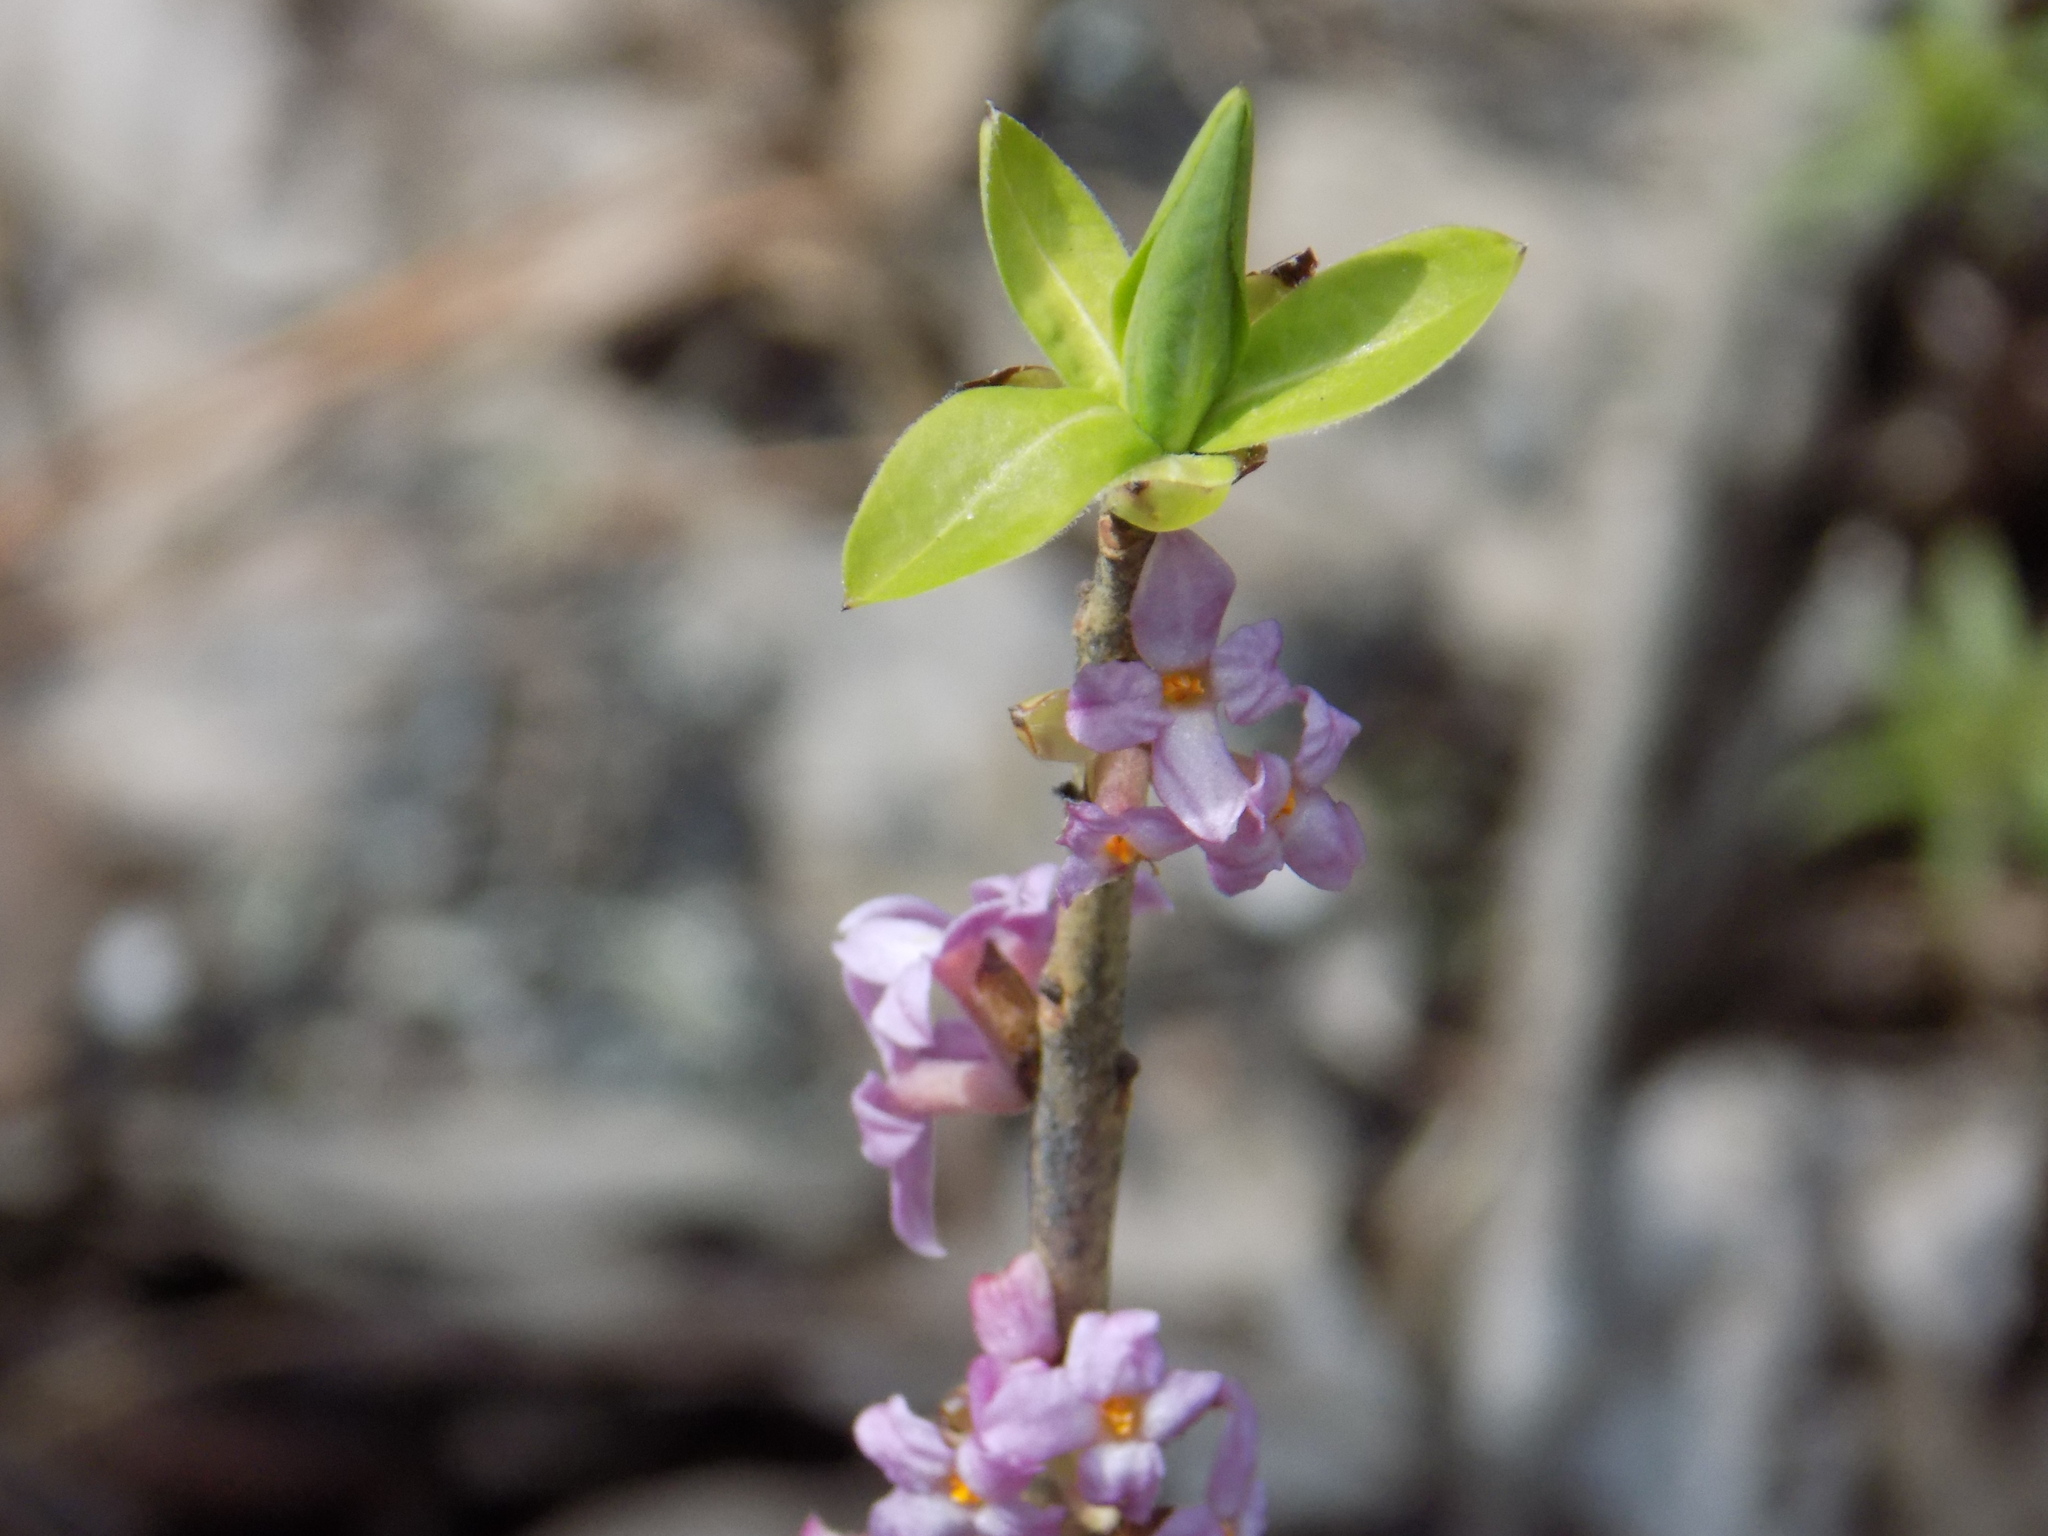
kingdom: Plantae
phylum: Tracheophyta
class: Magnoliopsida
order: Malvales
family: Thymelaeaceae
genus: Daphne
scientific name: Daphne mezereum
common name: Mezereon
